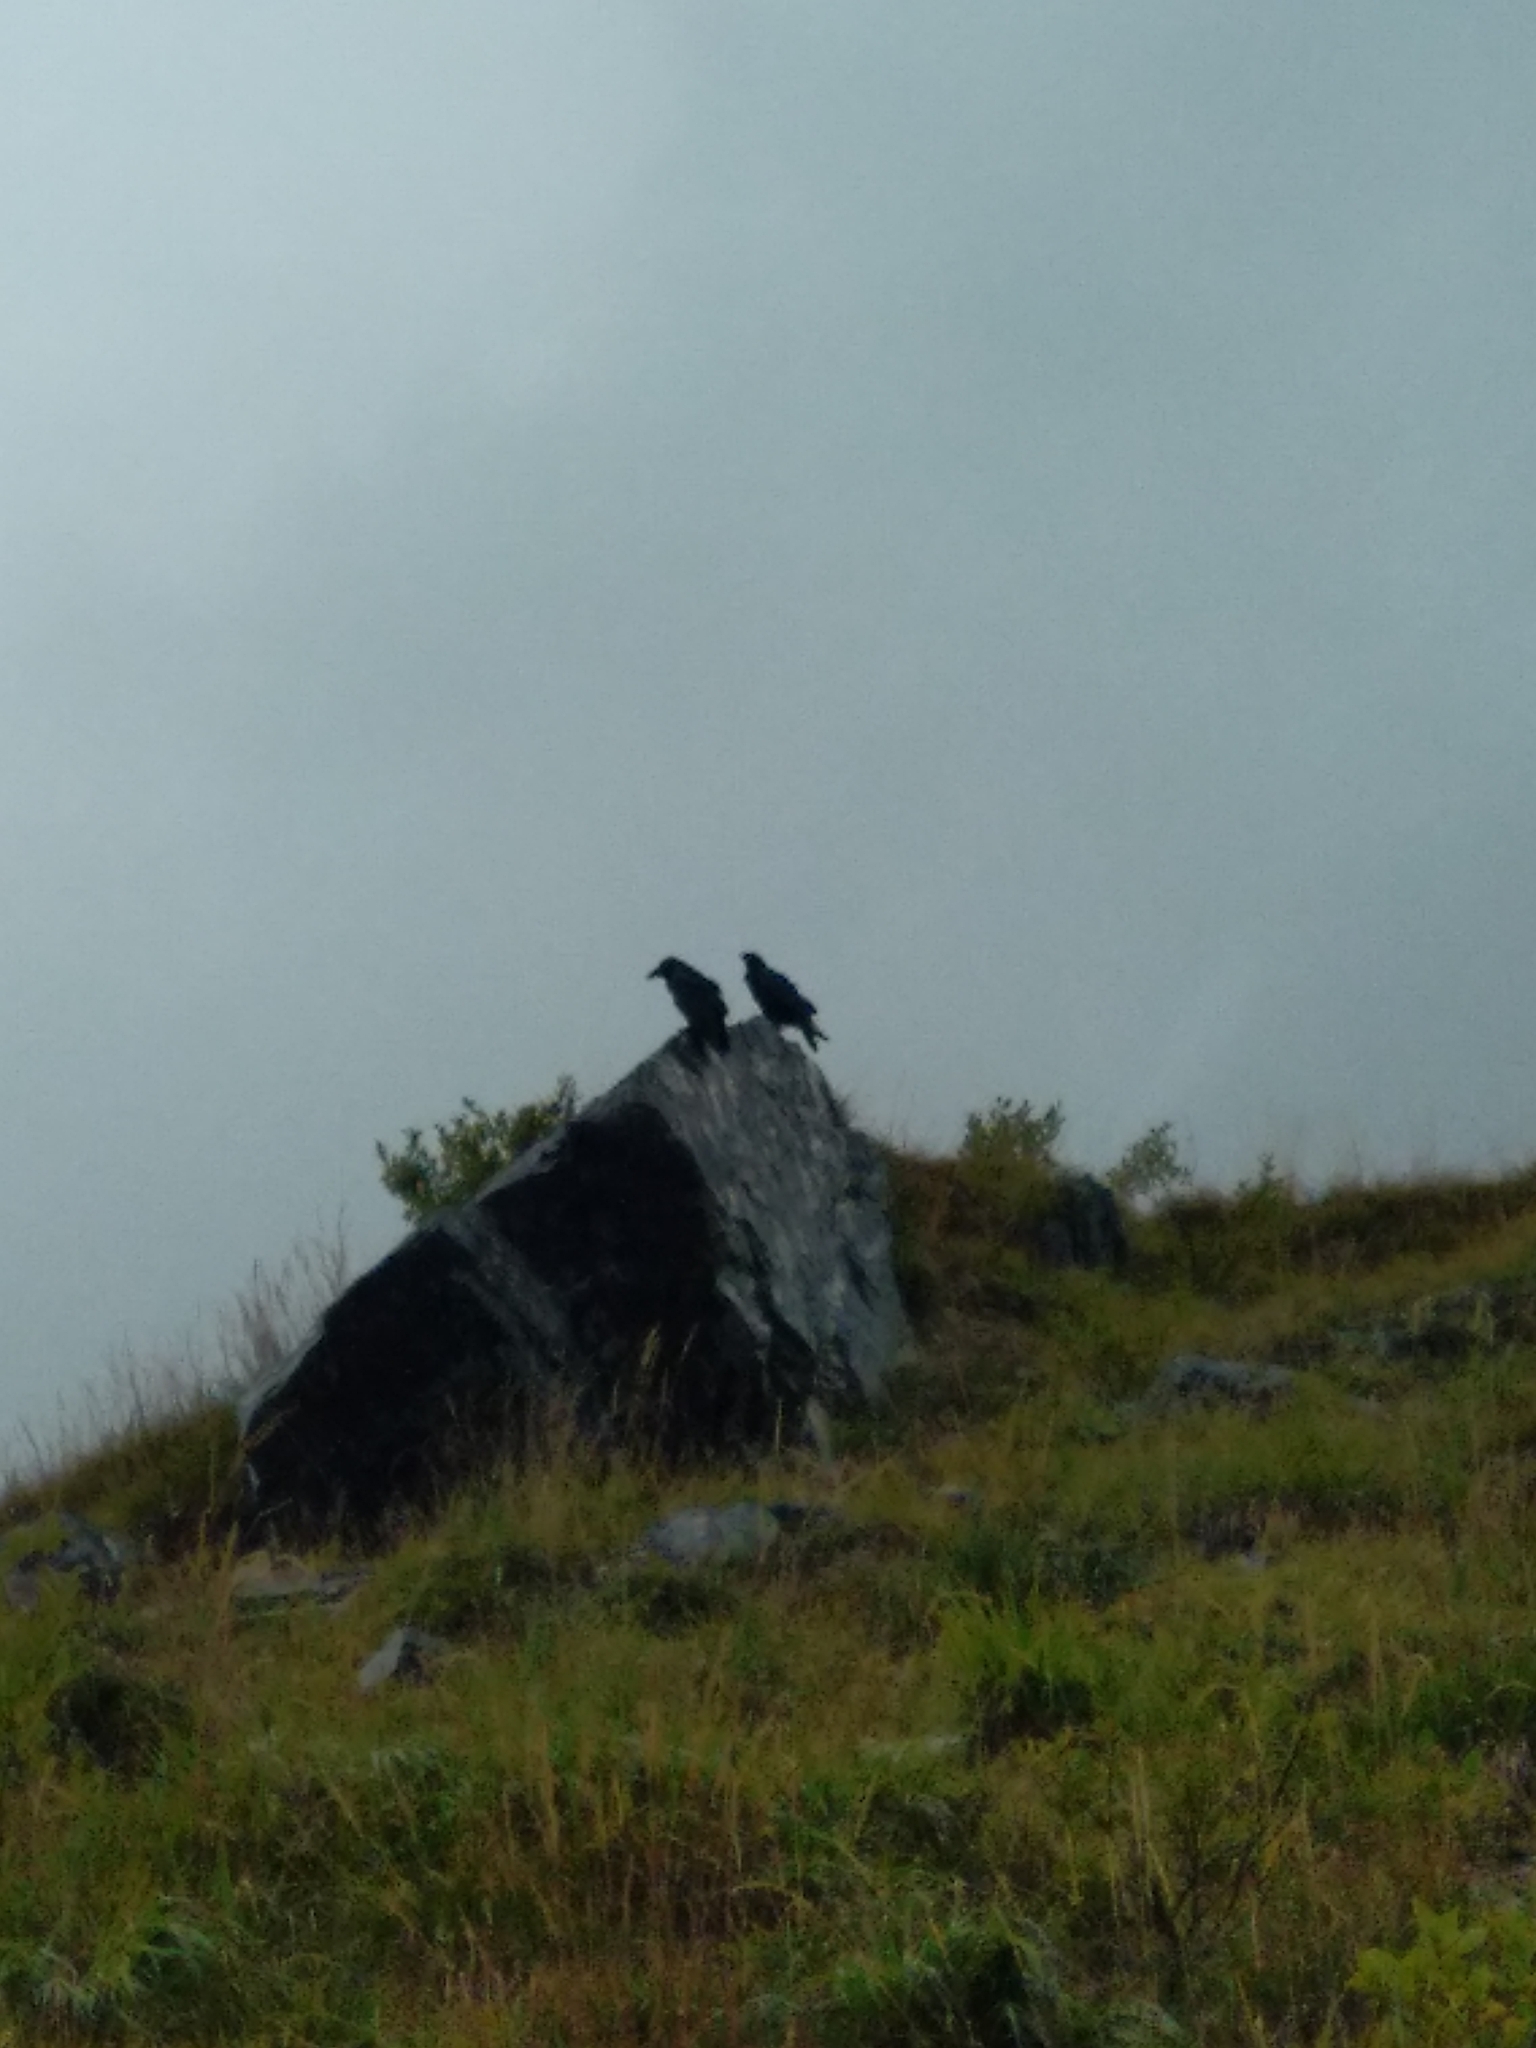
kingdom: Animalia
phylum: Chordata
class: Aves
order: Passeriformes
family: Corvidae
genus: Corvus
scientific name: Corvus corax
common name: Common raven
